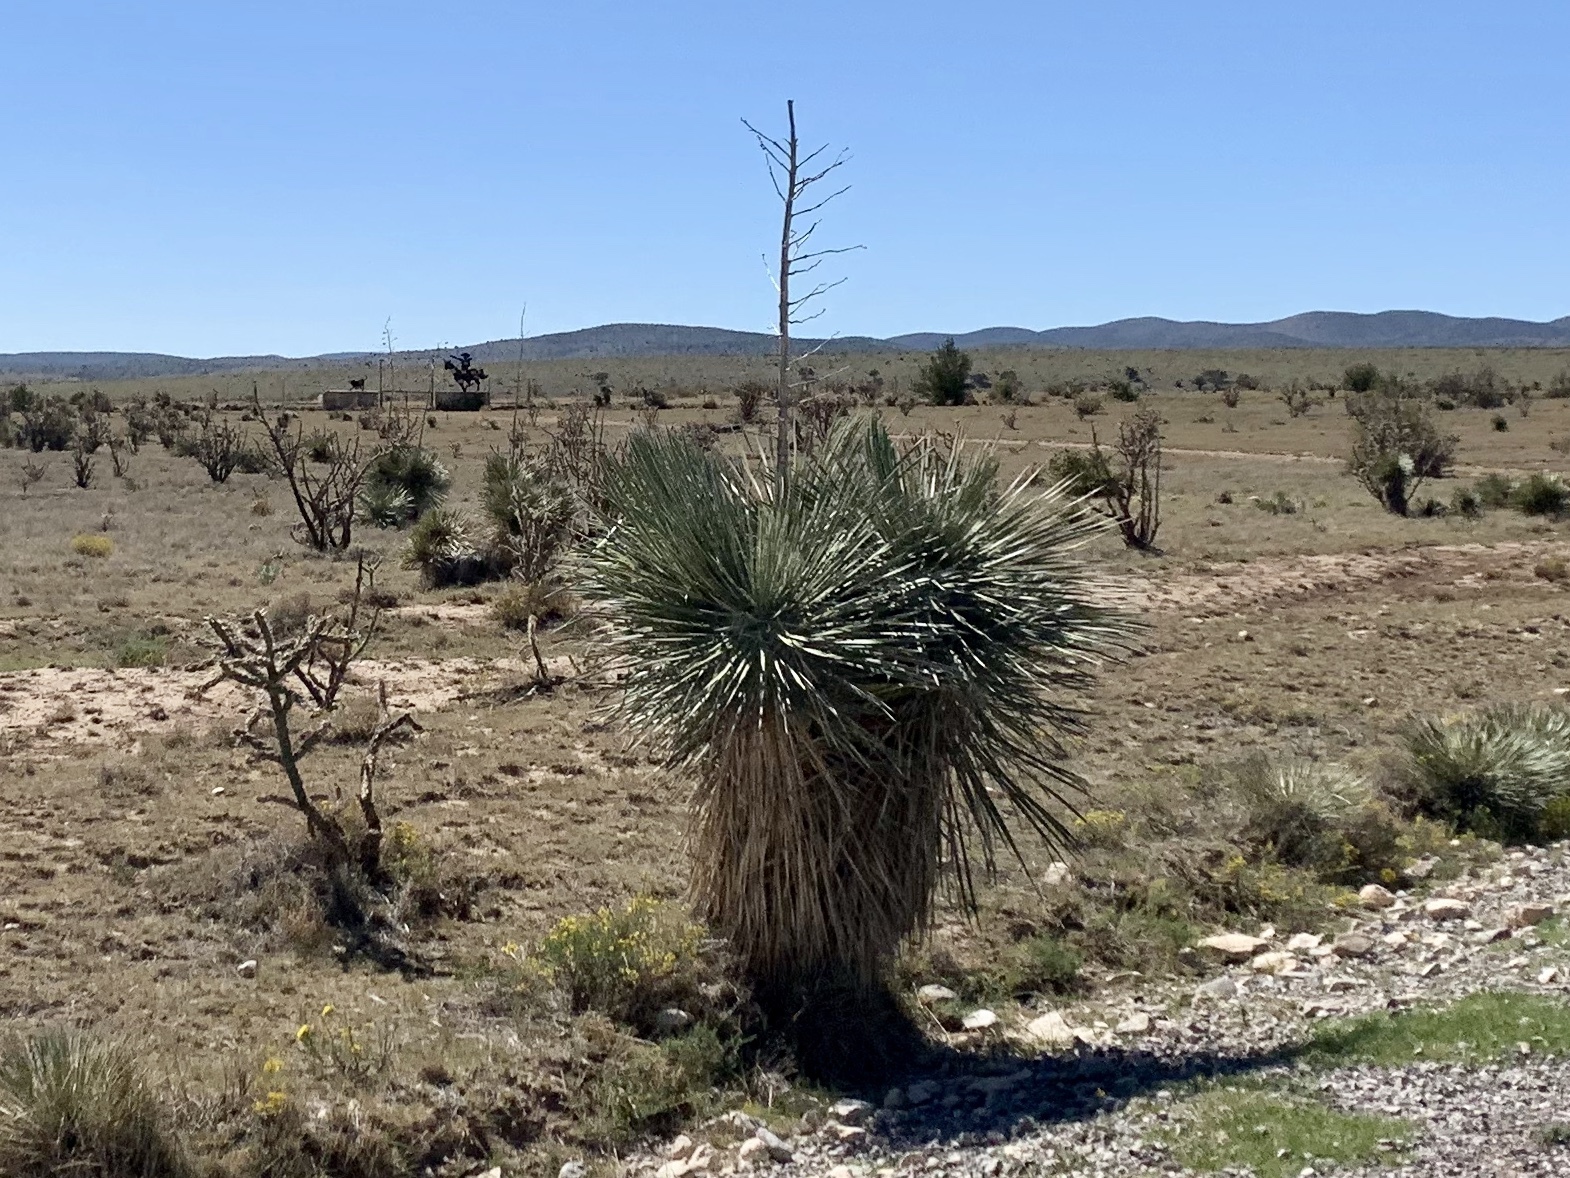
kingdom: Plantae
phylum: Tracheophyta
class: Liliopsida
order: Asparagales
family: Asparagaceae
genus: Yucca
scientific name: Yucca elata
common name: Palmella
